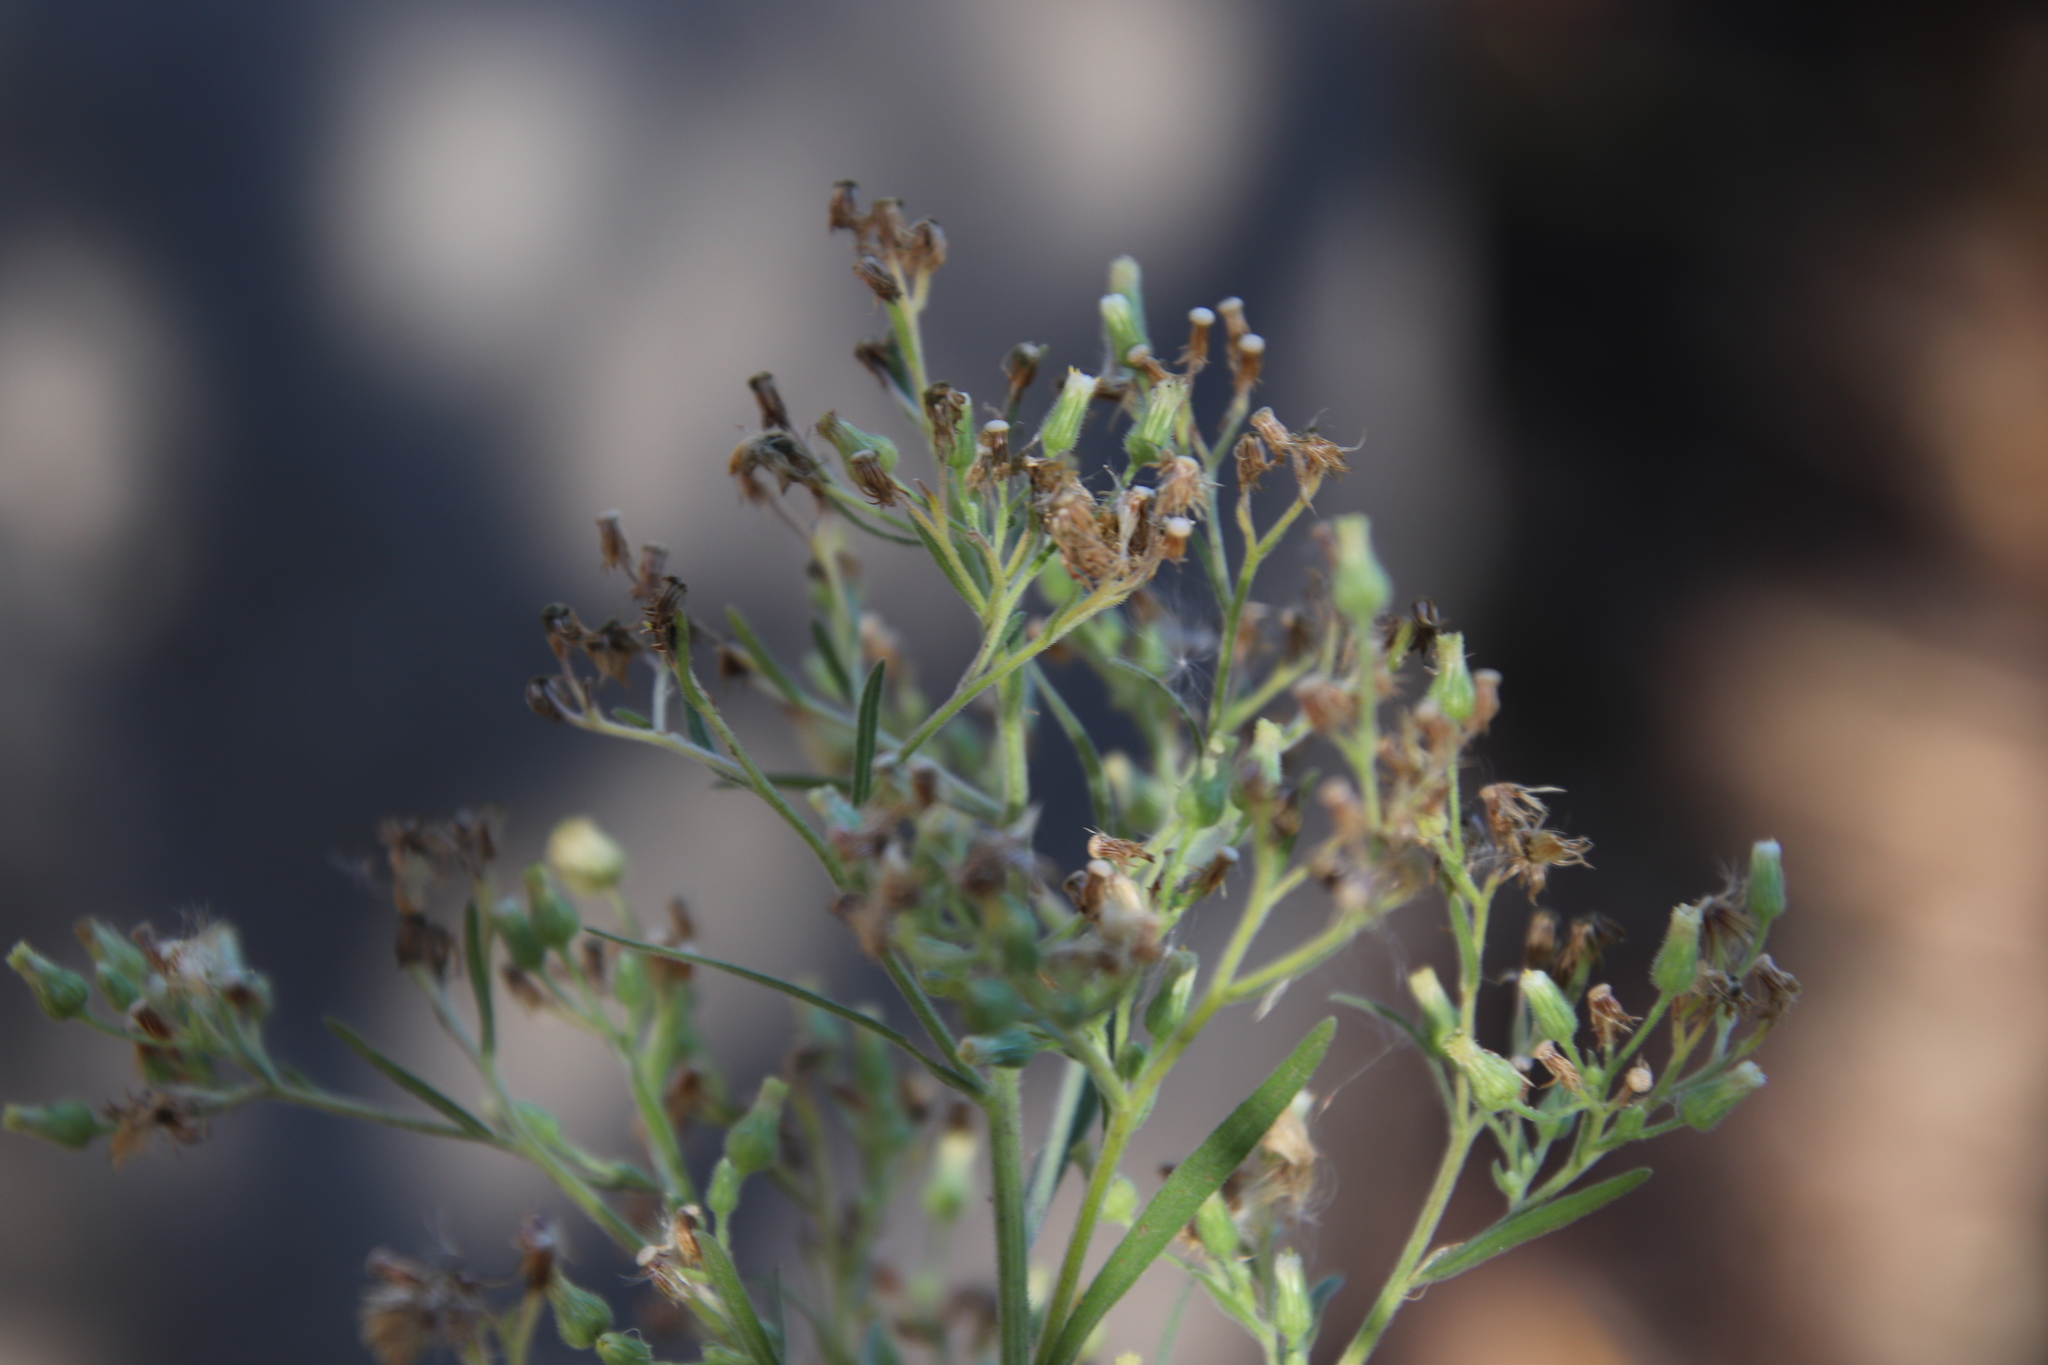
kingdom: Plantae
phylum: Tracheophyta
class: Magnoliopsida
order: Asterales
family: Asteraceae
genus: Erigeron
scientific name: Erigeron sumatrensis
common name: Daisy
